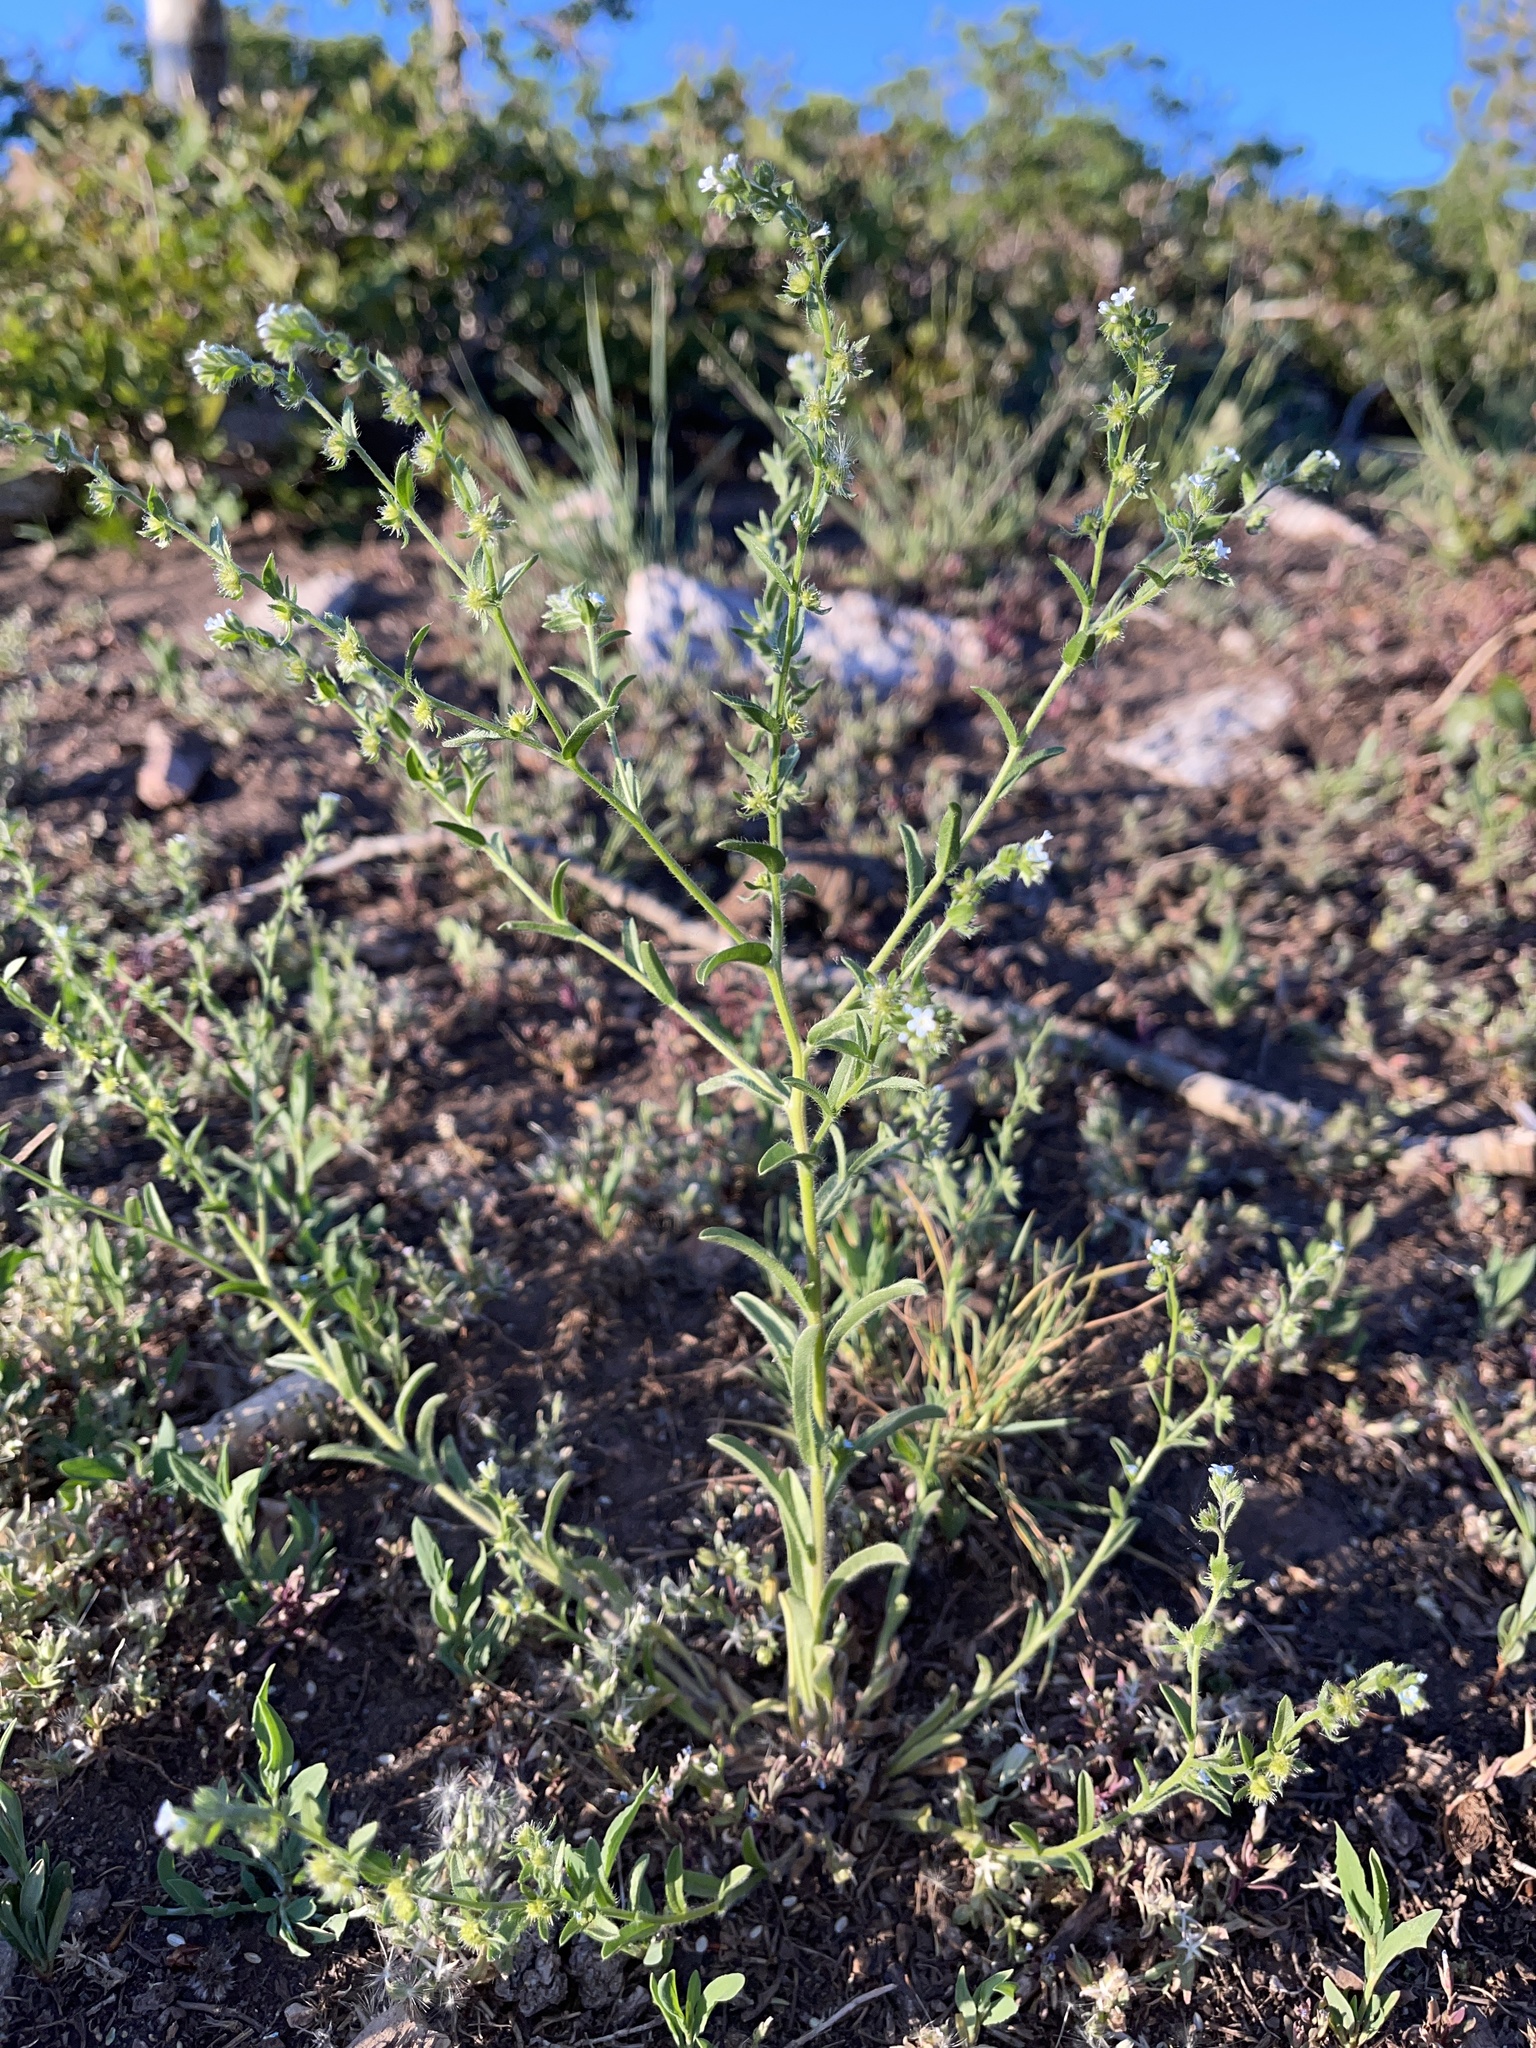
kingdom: Plantae
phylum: Tracheophyta
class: Magnoliopsida
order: Boraginales
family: Boraginaceae
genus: Lappula
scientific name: Lappula occidentalis
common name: Western stickseed
